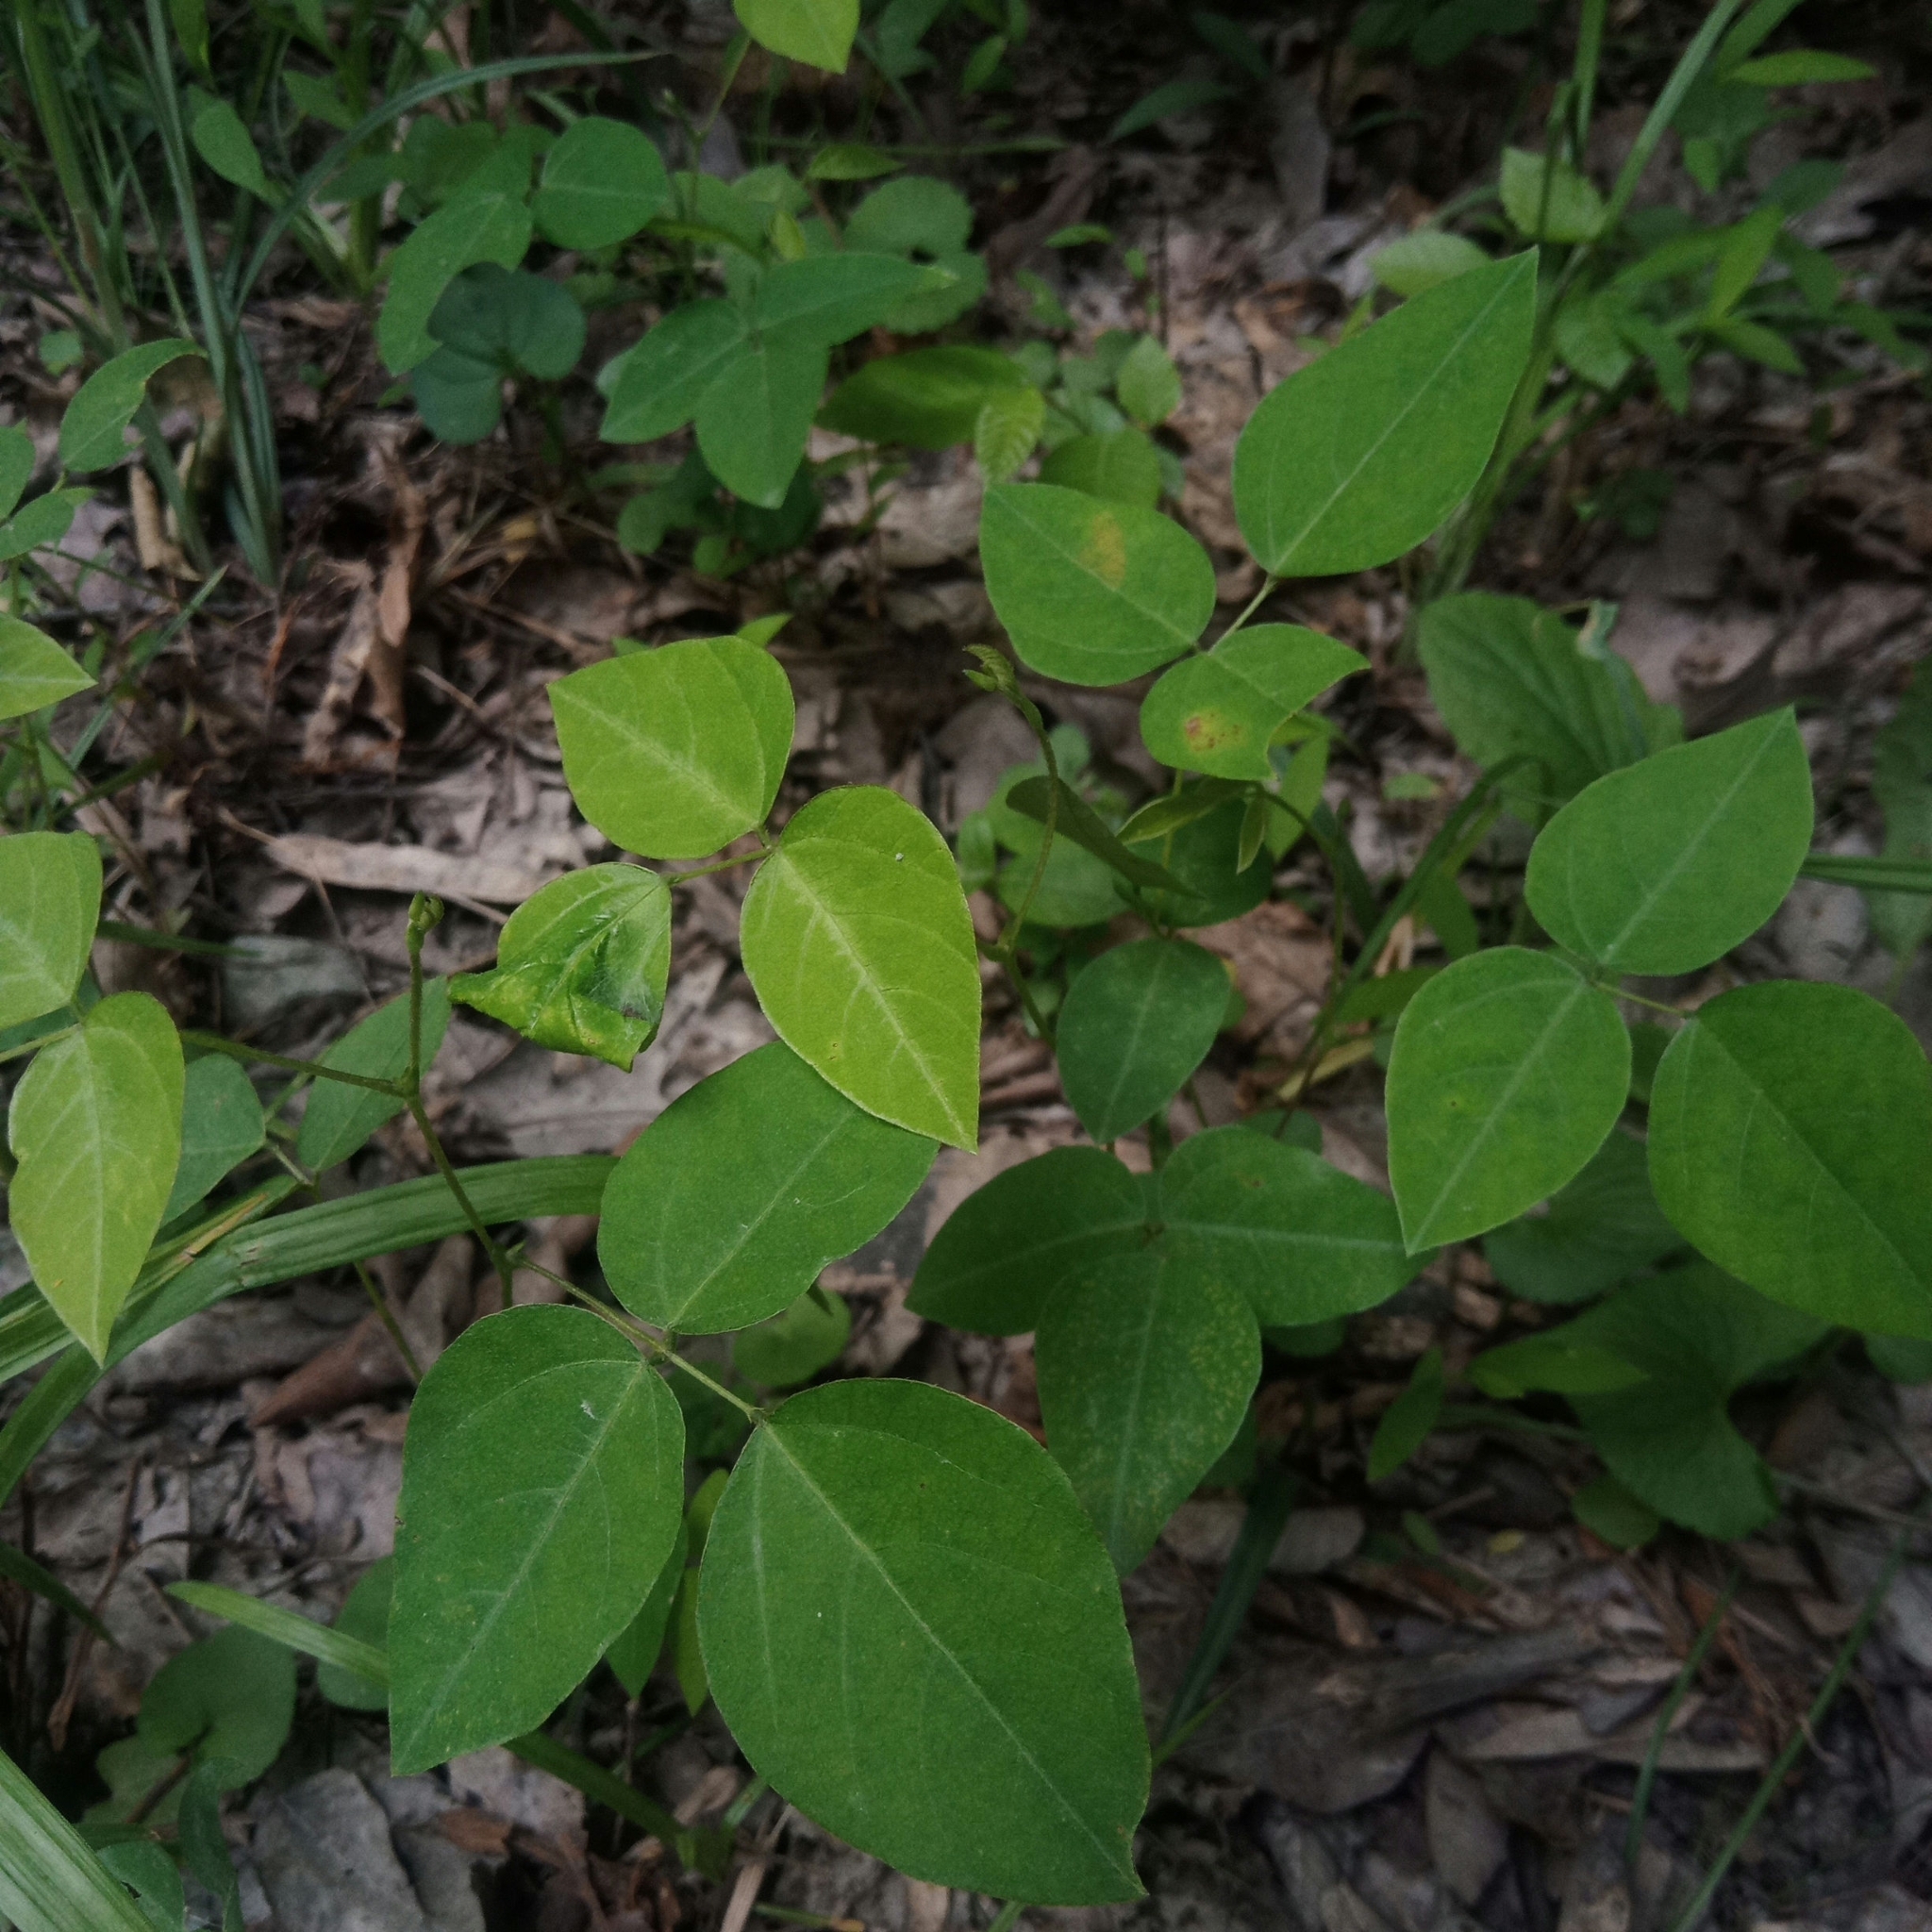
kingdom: Plantae
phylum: Tracheophyta
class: Magnoliopsida
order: Fabales
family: Fabaceae
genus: Amphicarpaea
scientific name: Amphicarpaea bracteata
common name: American hog peanut
